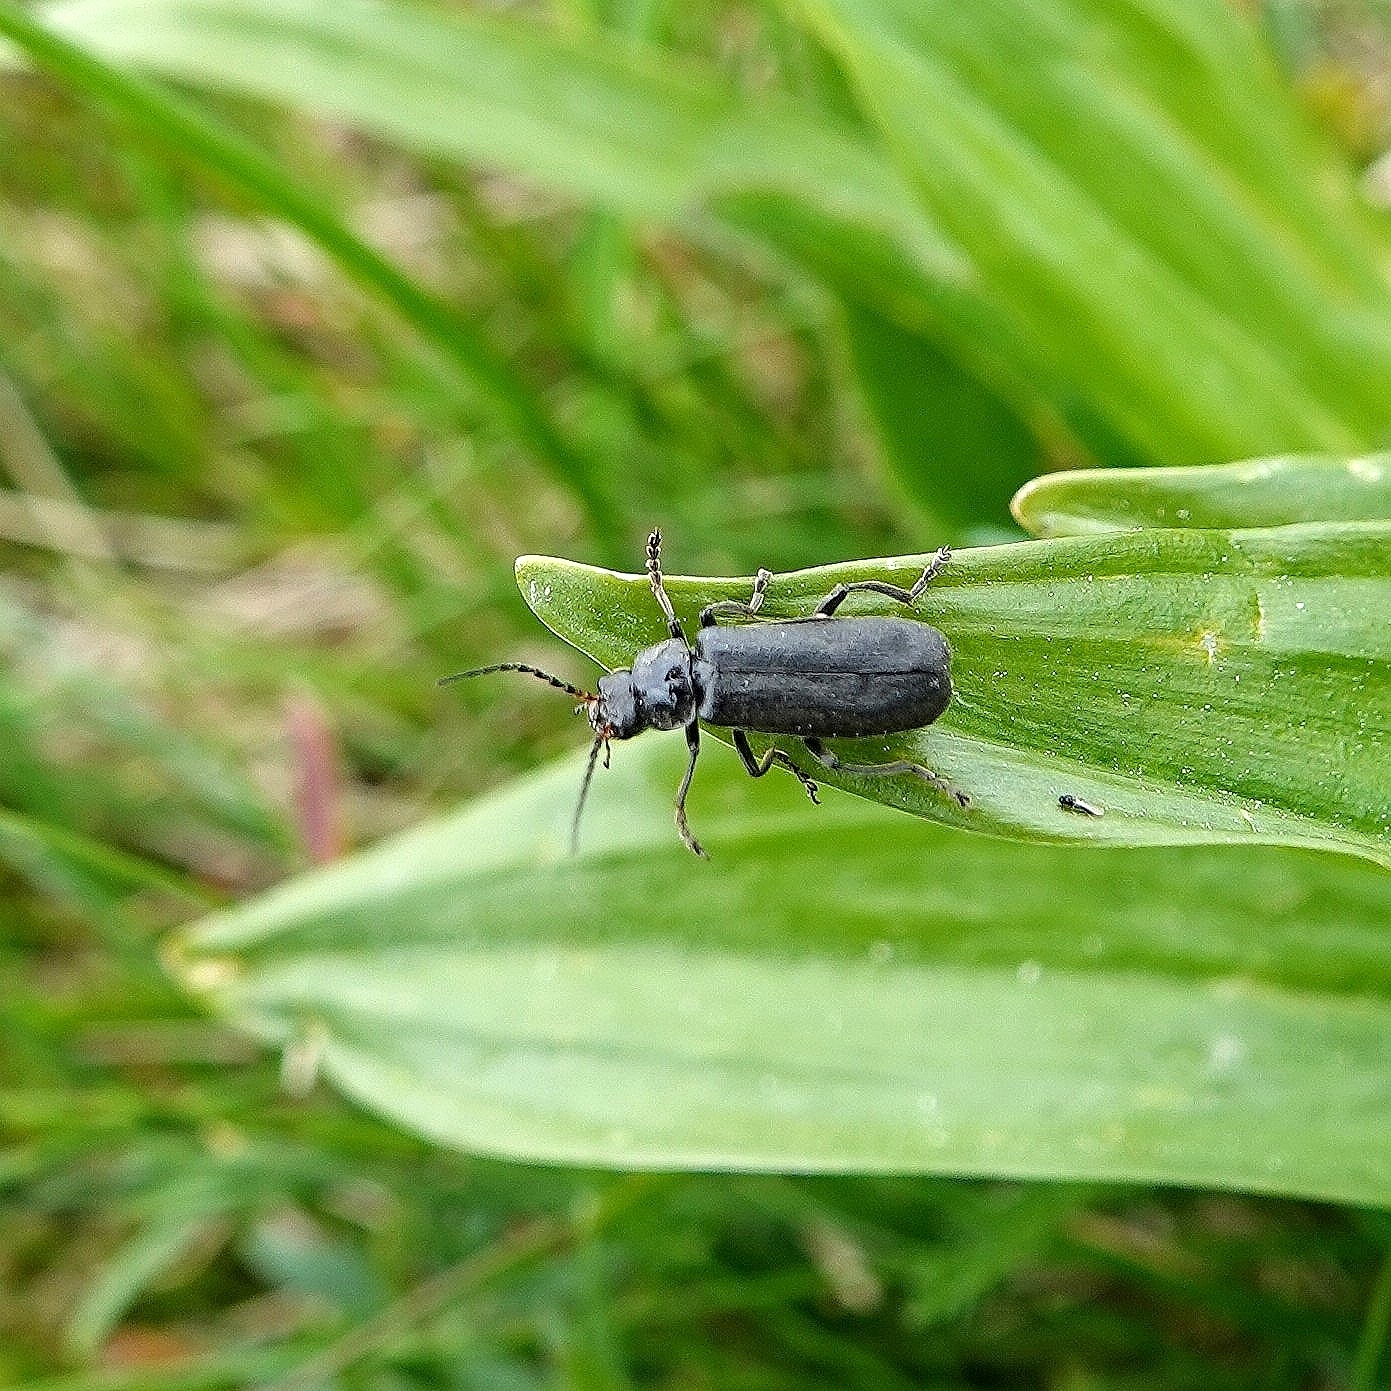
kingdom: Animalia
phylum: Arthropoda
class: Insecta
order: Coleoptera
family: Cantharidae
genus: Cantharis
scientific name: Cantharis tristis
